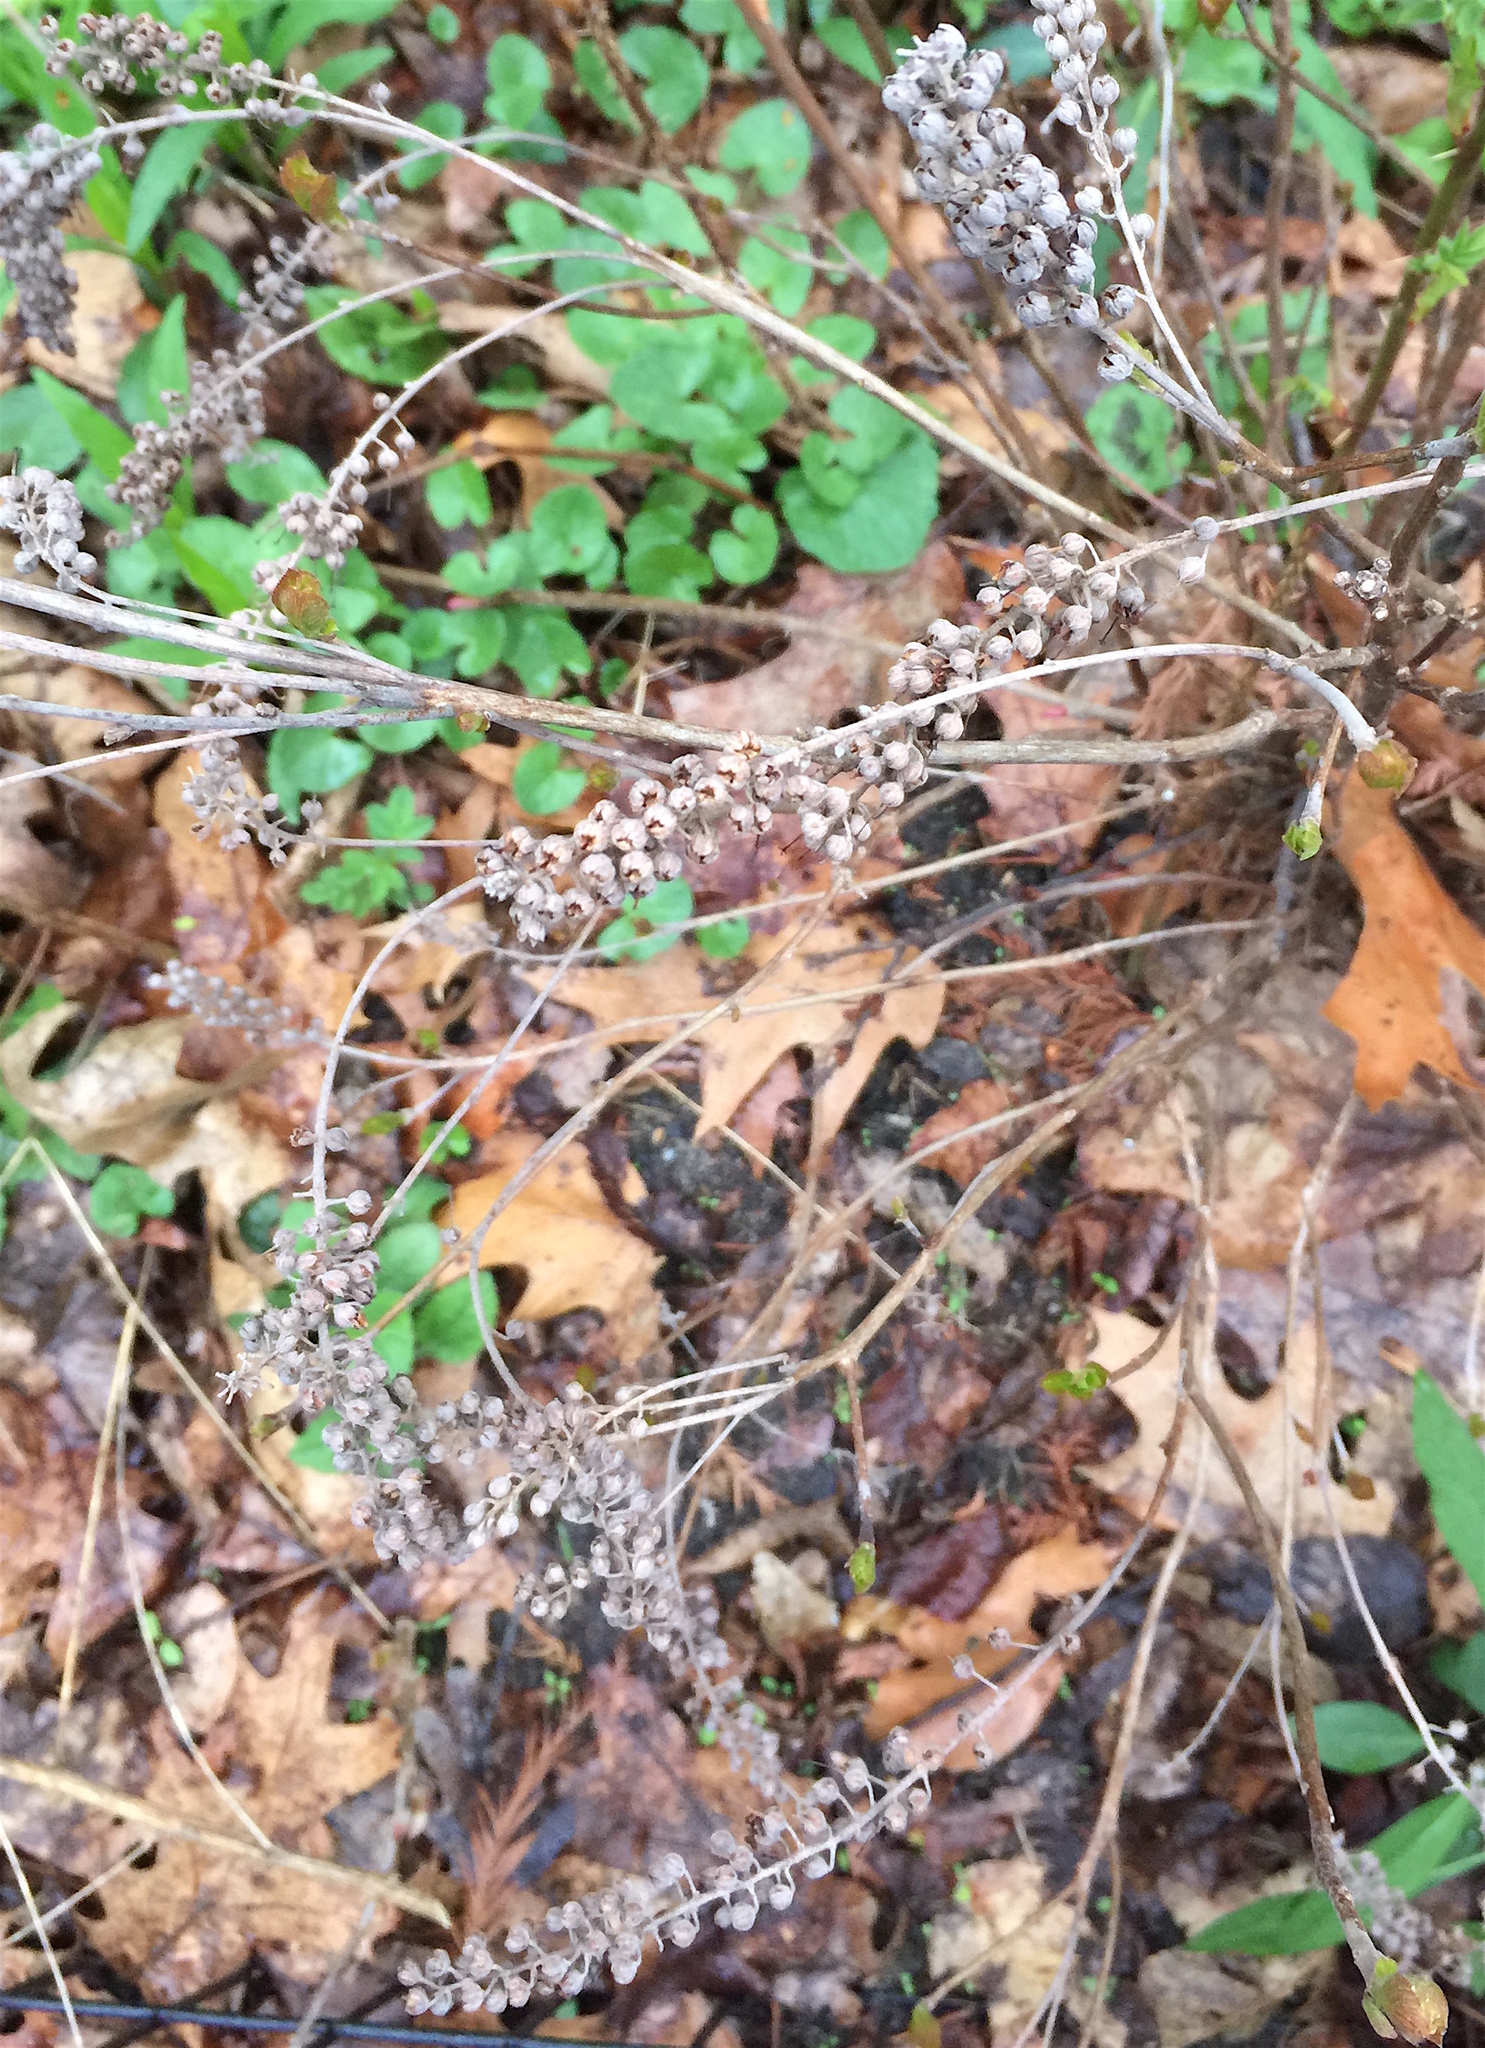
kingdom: Plantae
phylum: Tracheophyta
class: Magnoliopsida
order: Ericales
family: Clethraceae
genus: Clethra
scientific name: Clethra alnifolia
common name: Sweet pepperbush
